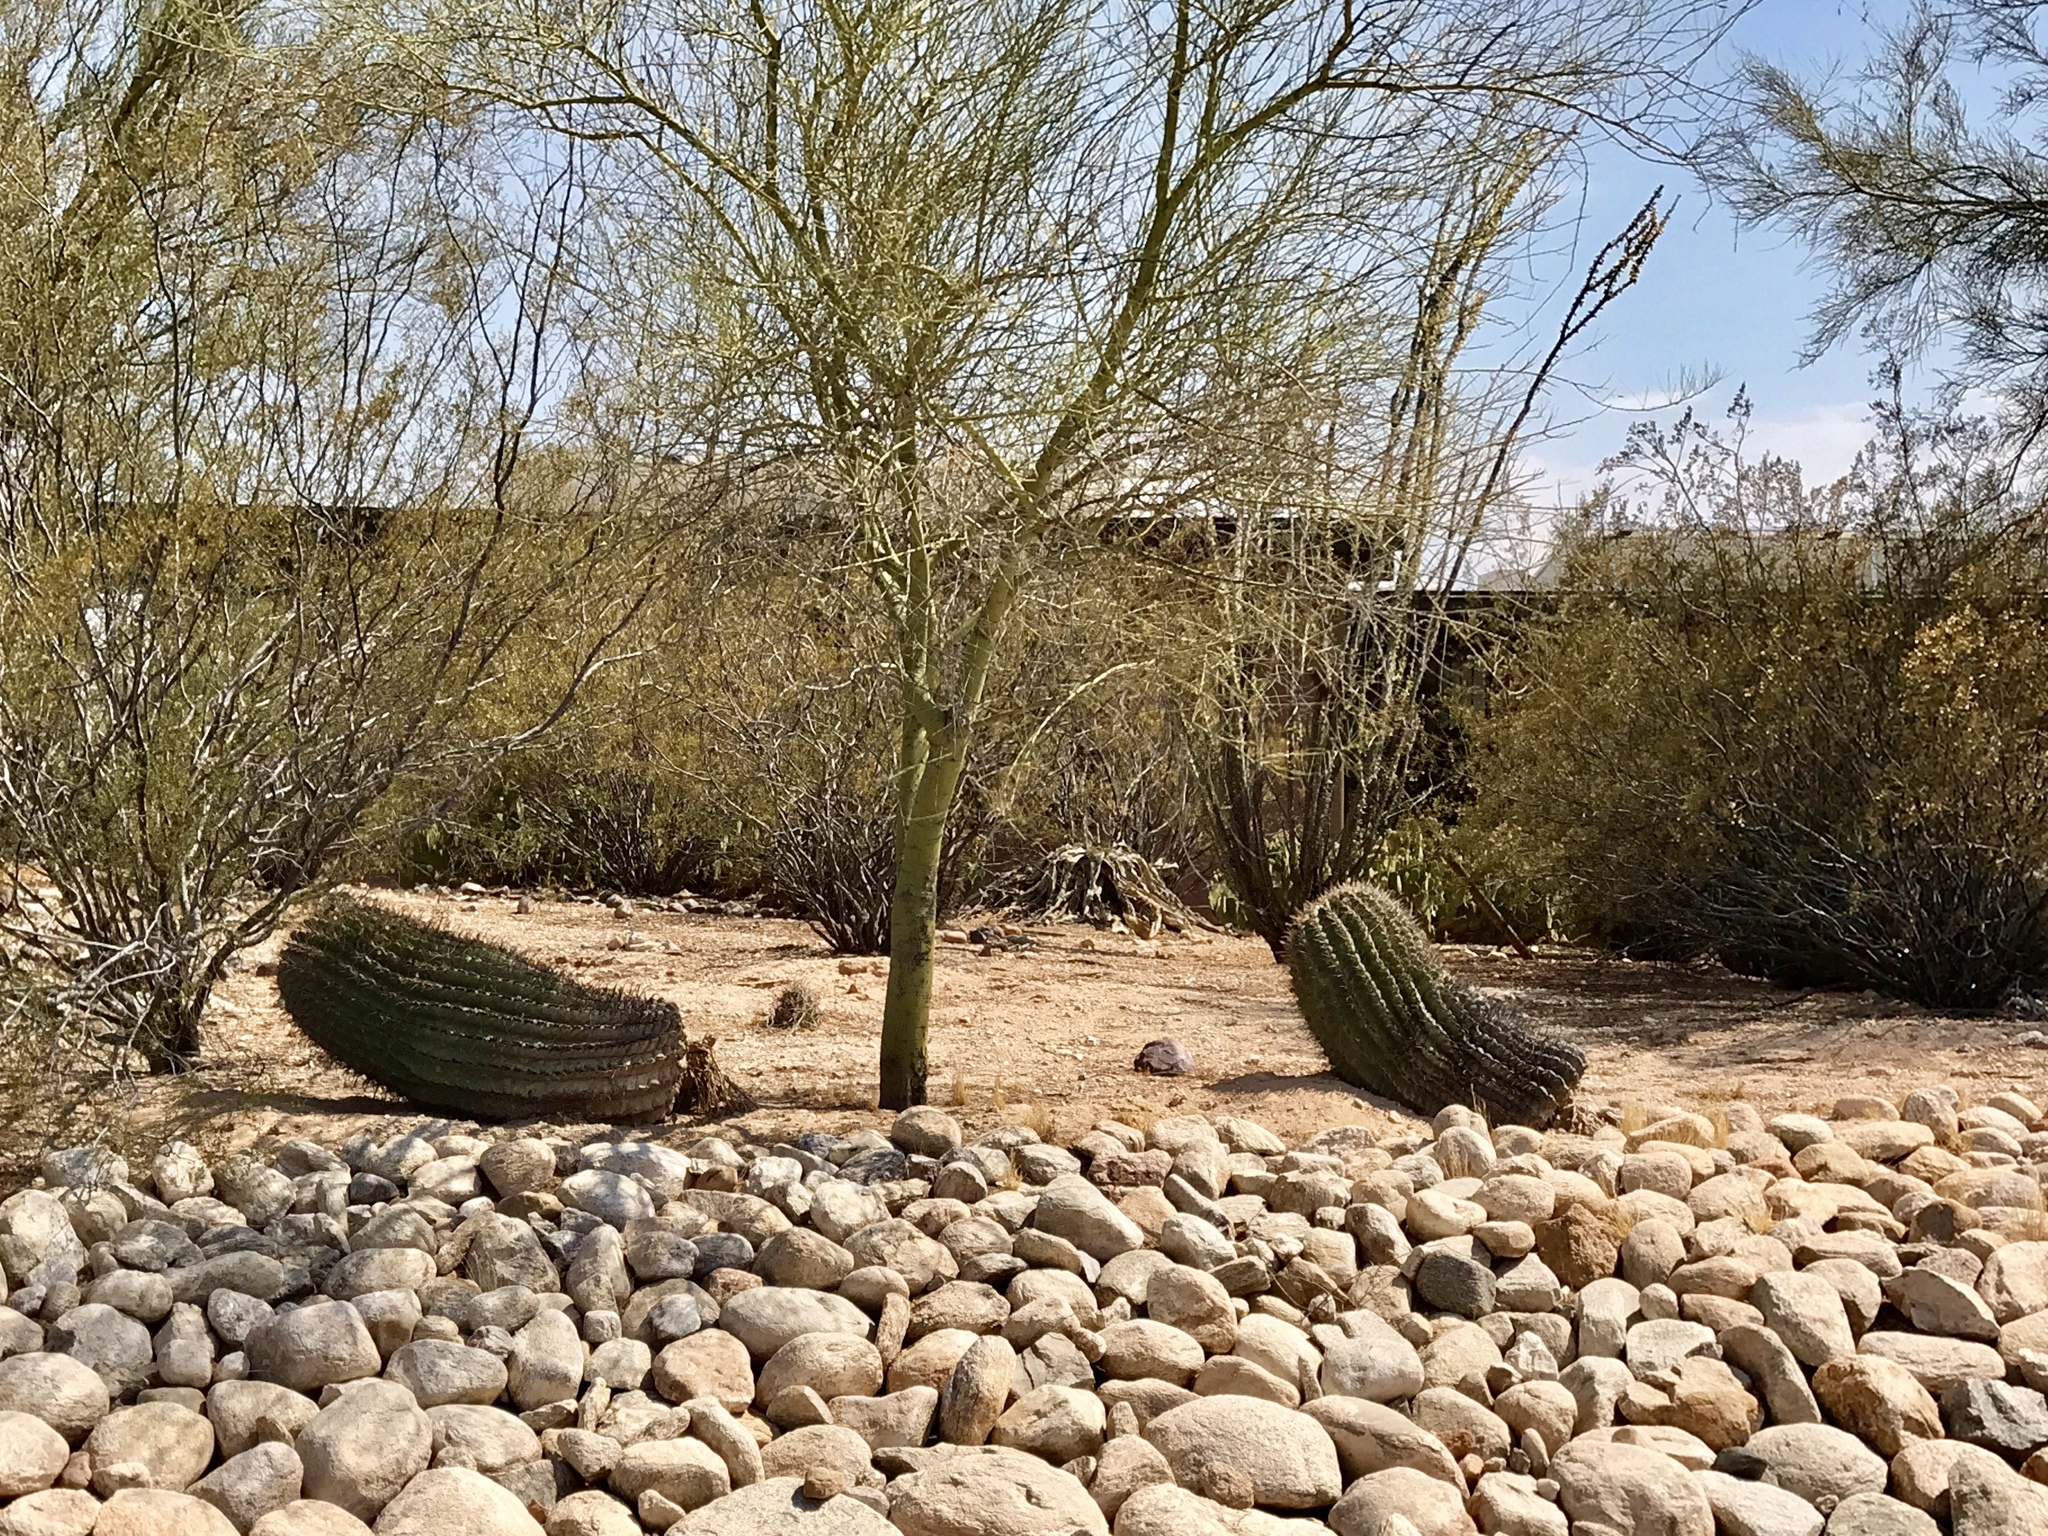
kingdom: Plantae
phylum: Tracheophyta
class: Magnoliopsida
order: Caryophyllales
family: Cactaceae
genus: Ferocactus
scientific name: Ferocactus wislizeni
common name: Candy barrel cactus
